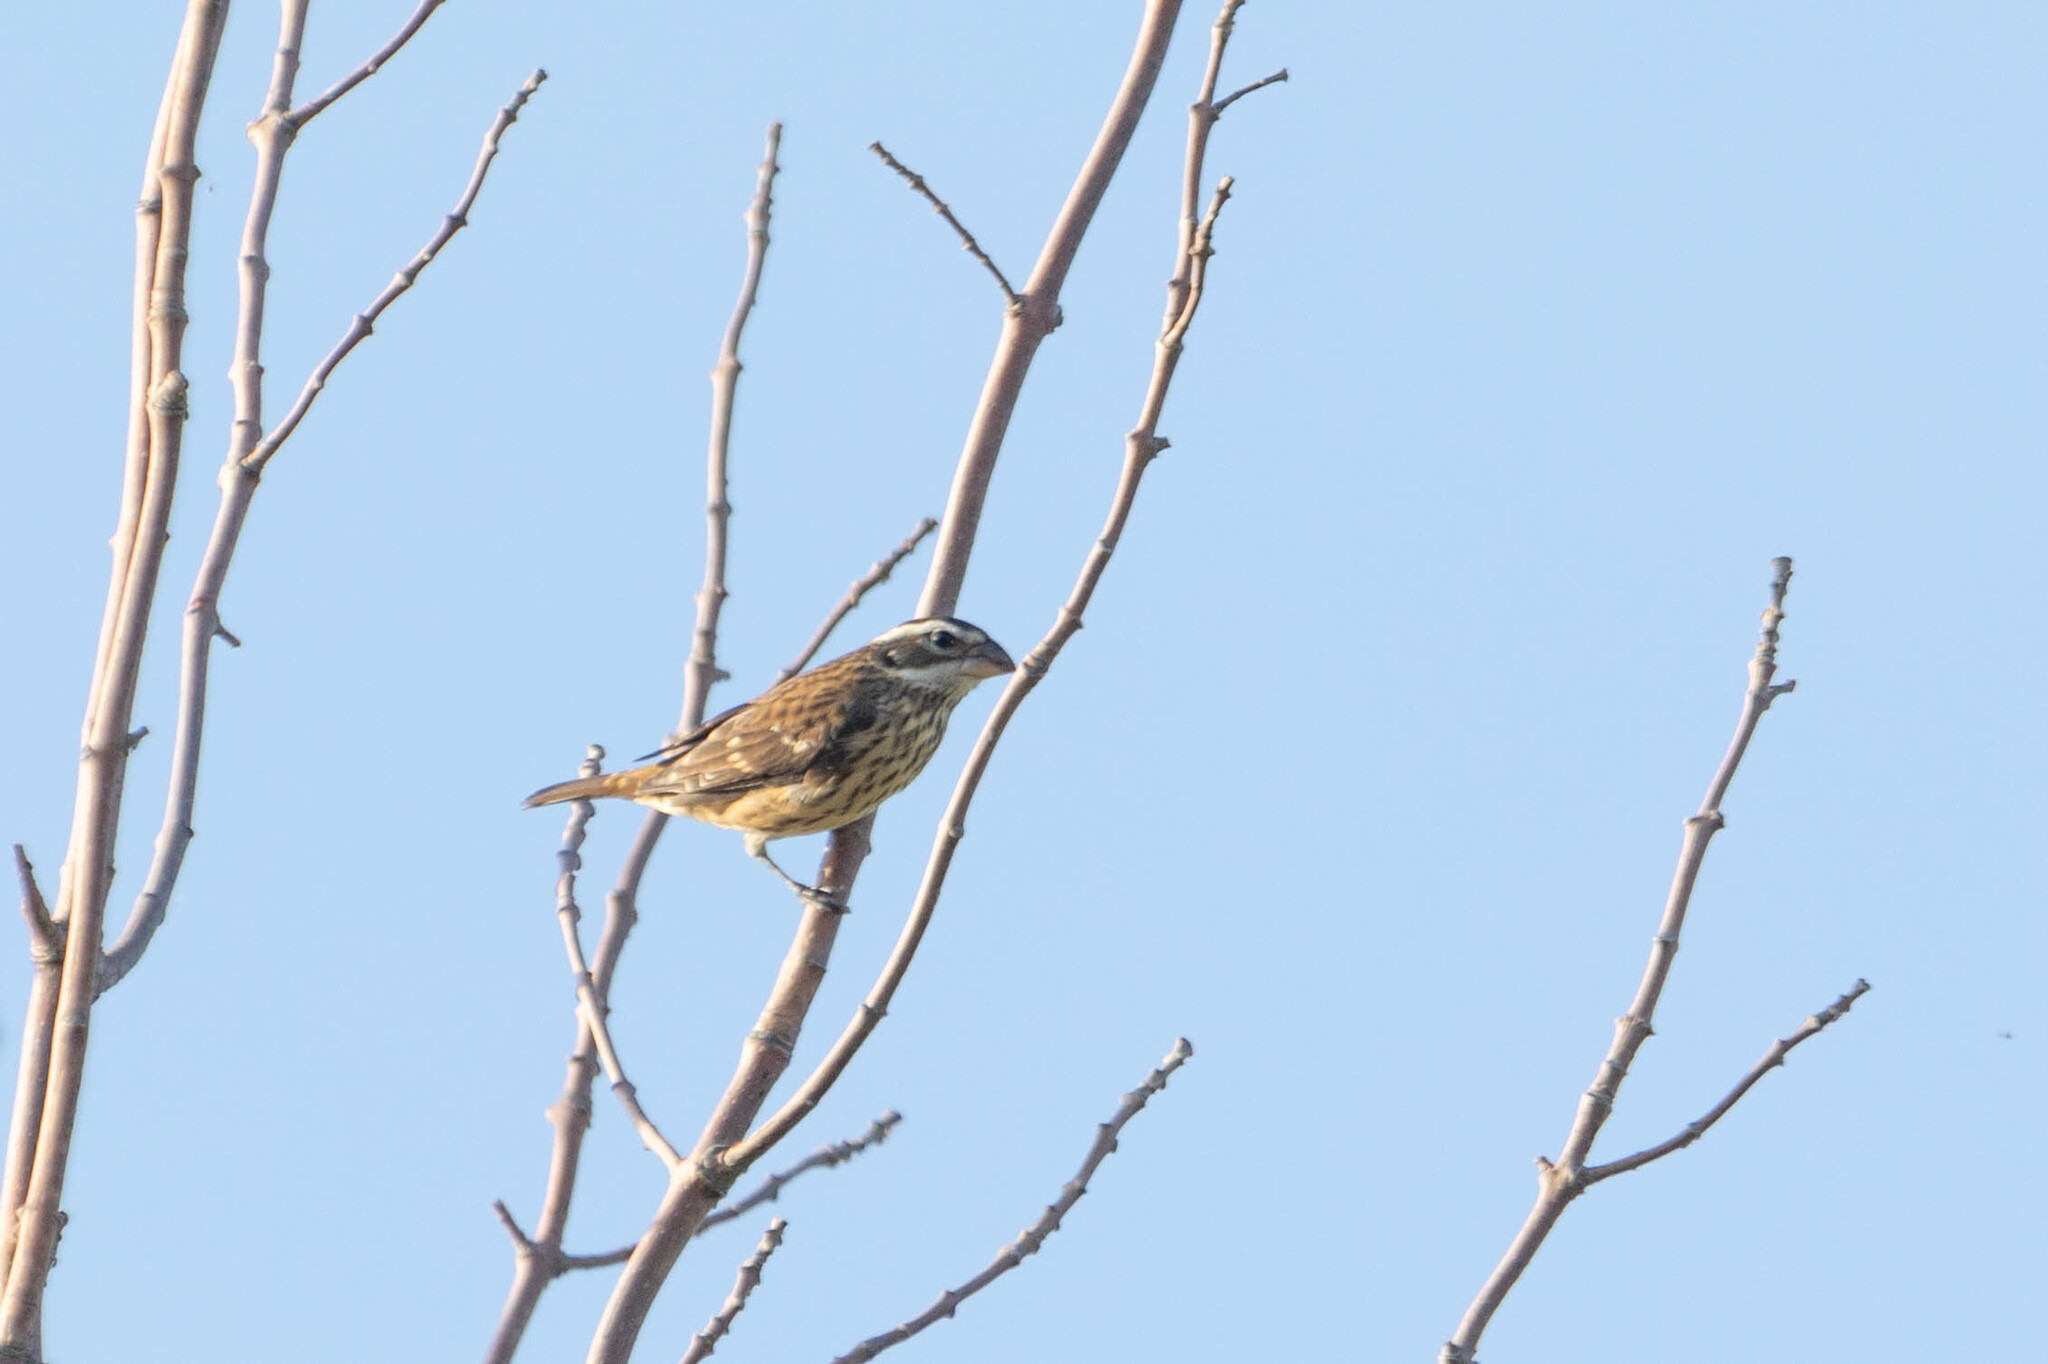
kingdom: Animalia
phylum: Chordata
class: Aves
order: Passeriformes
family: Cardinalidae
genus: Pheucticus
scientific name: Pheucticus ludovicianus
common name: Rose-breasted grosbeak
